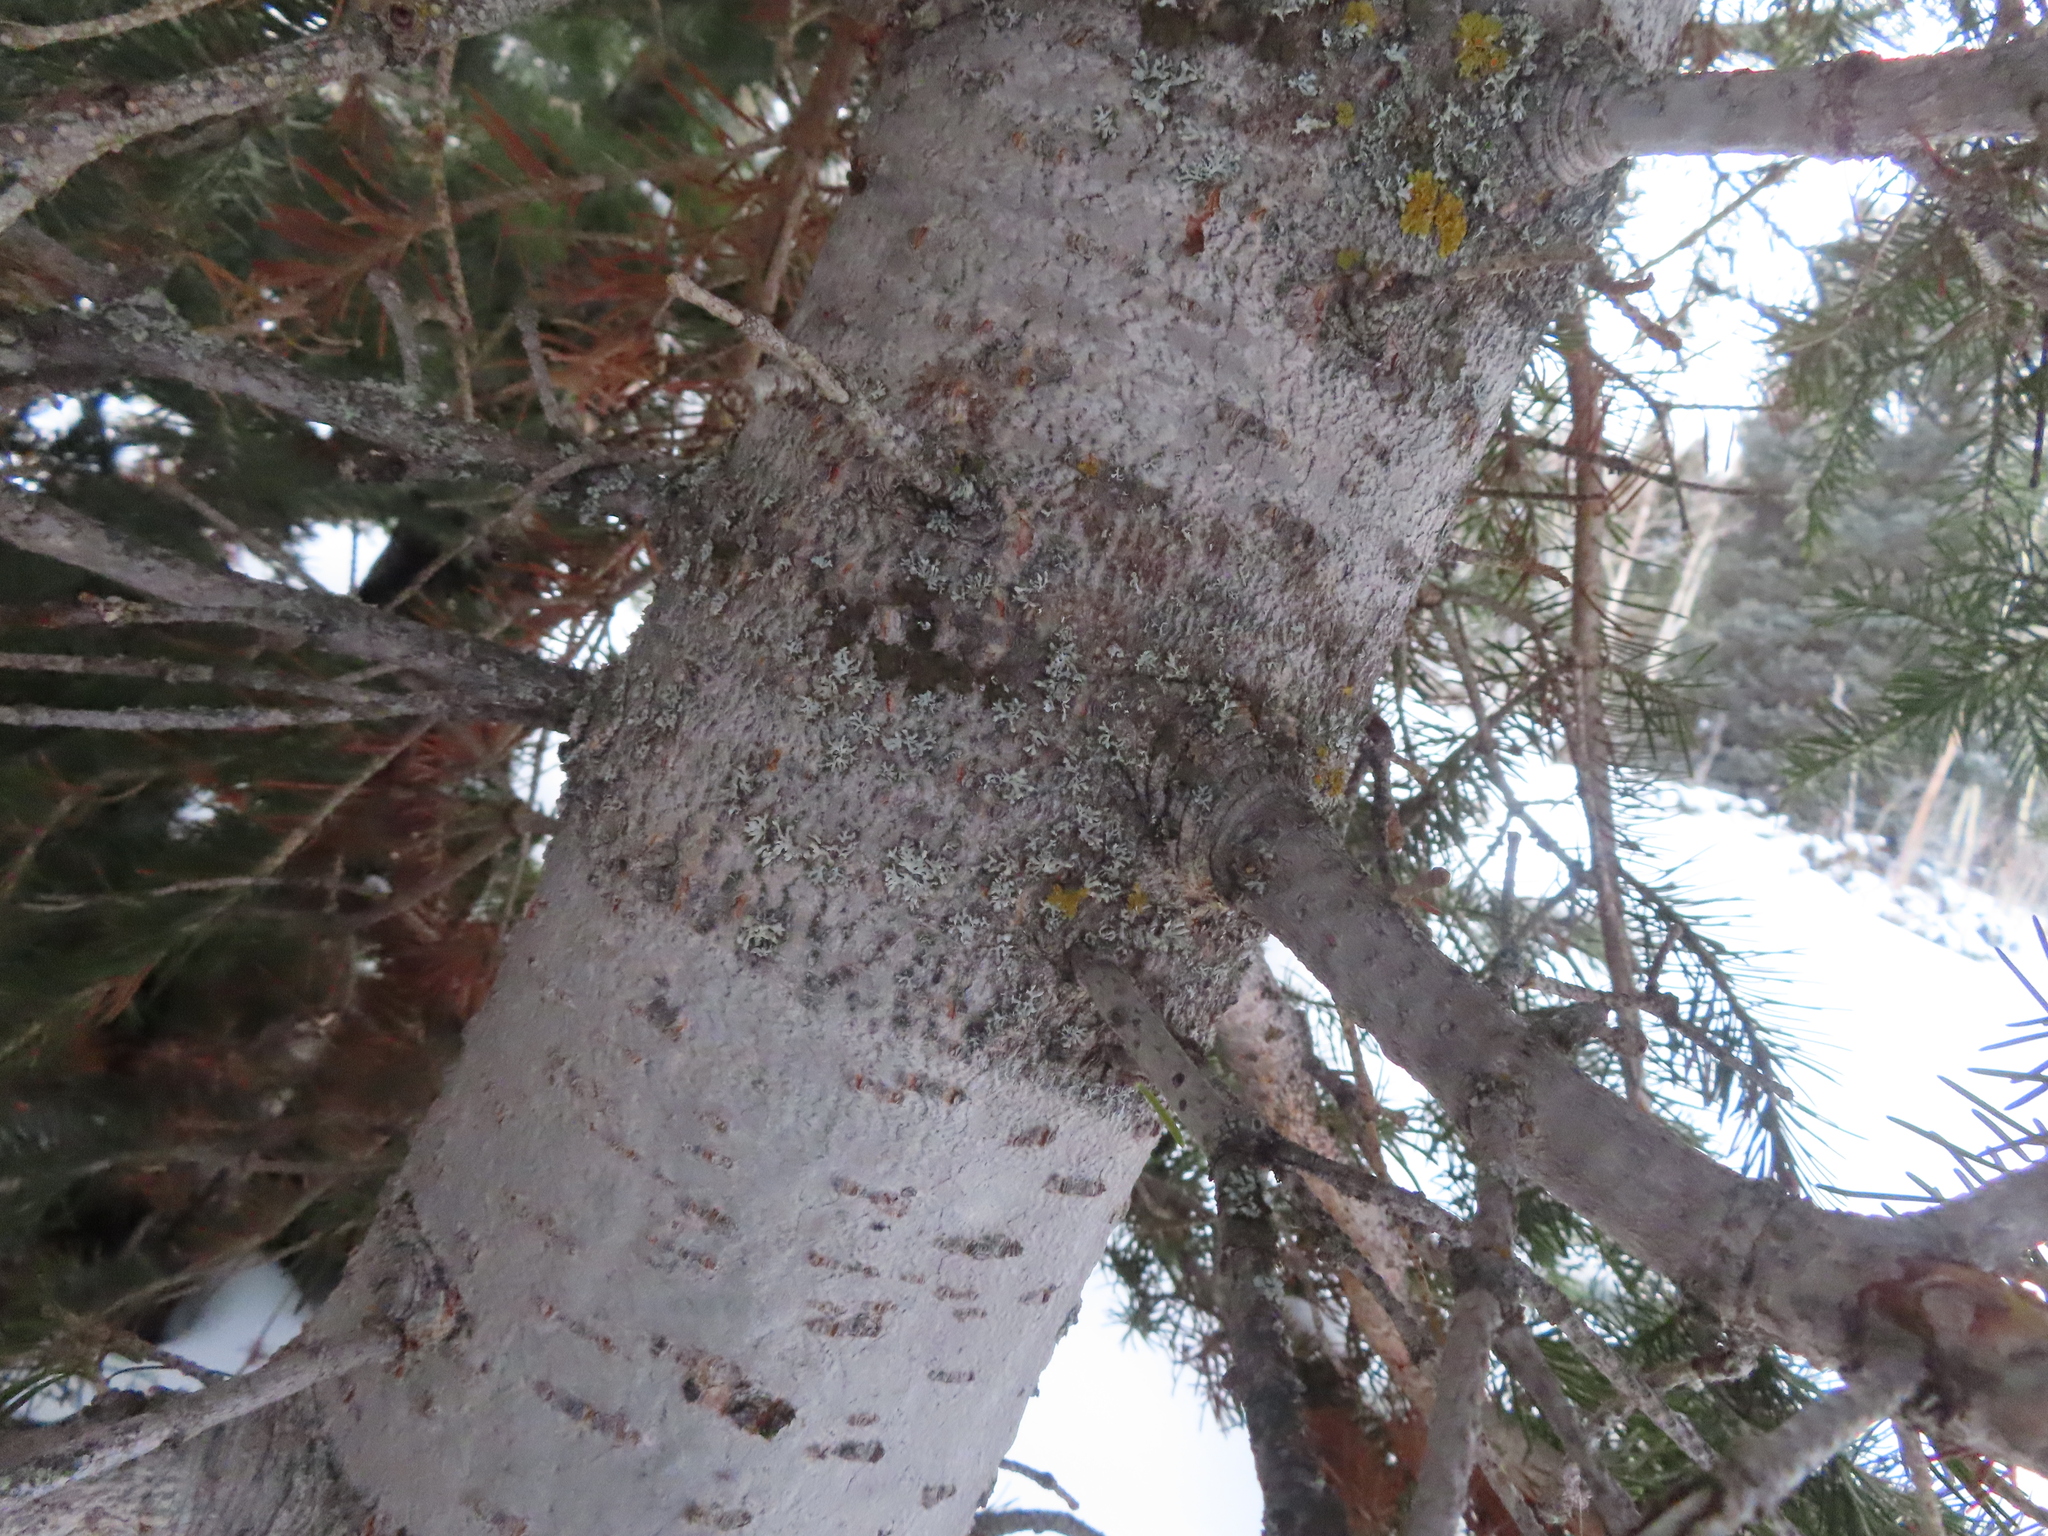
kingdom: Plantae
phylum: Tracheophyta
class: Pinopsida
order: Pinales
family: Pinaceae
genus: Abies
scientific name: Abies lasiocarpa
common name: Subalpine fir
